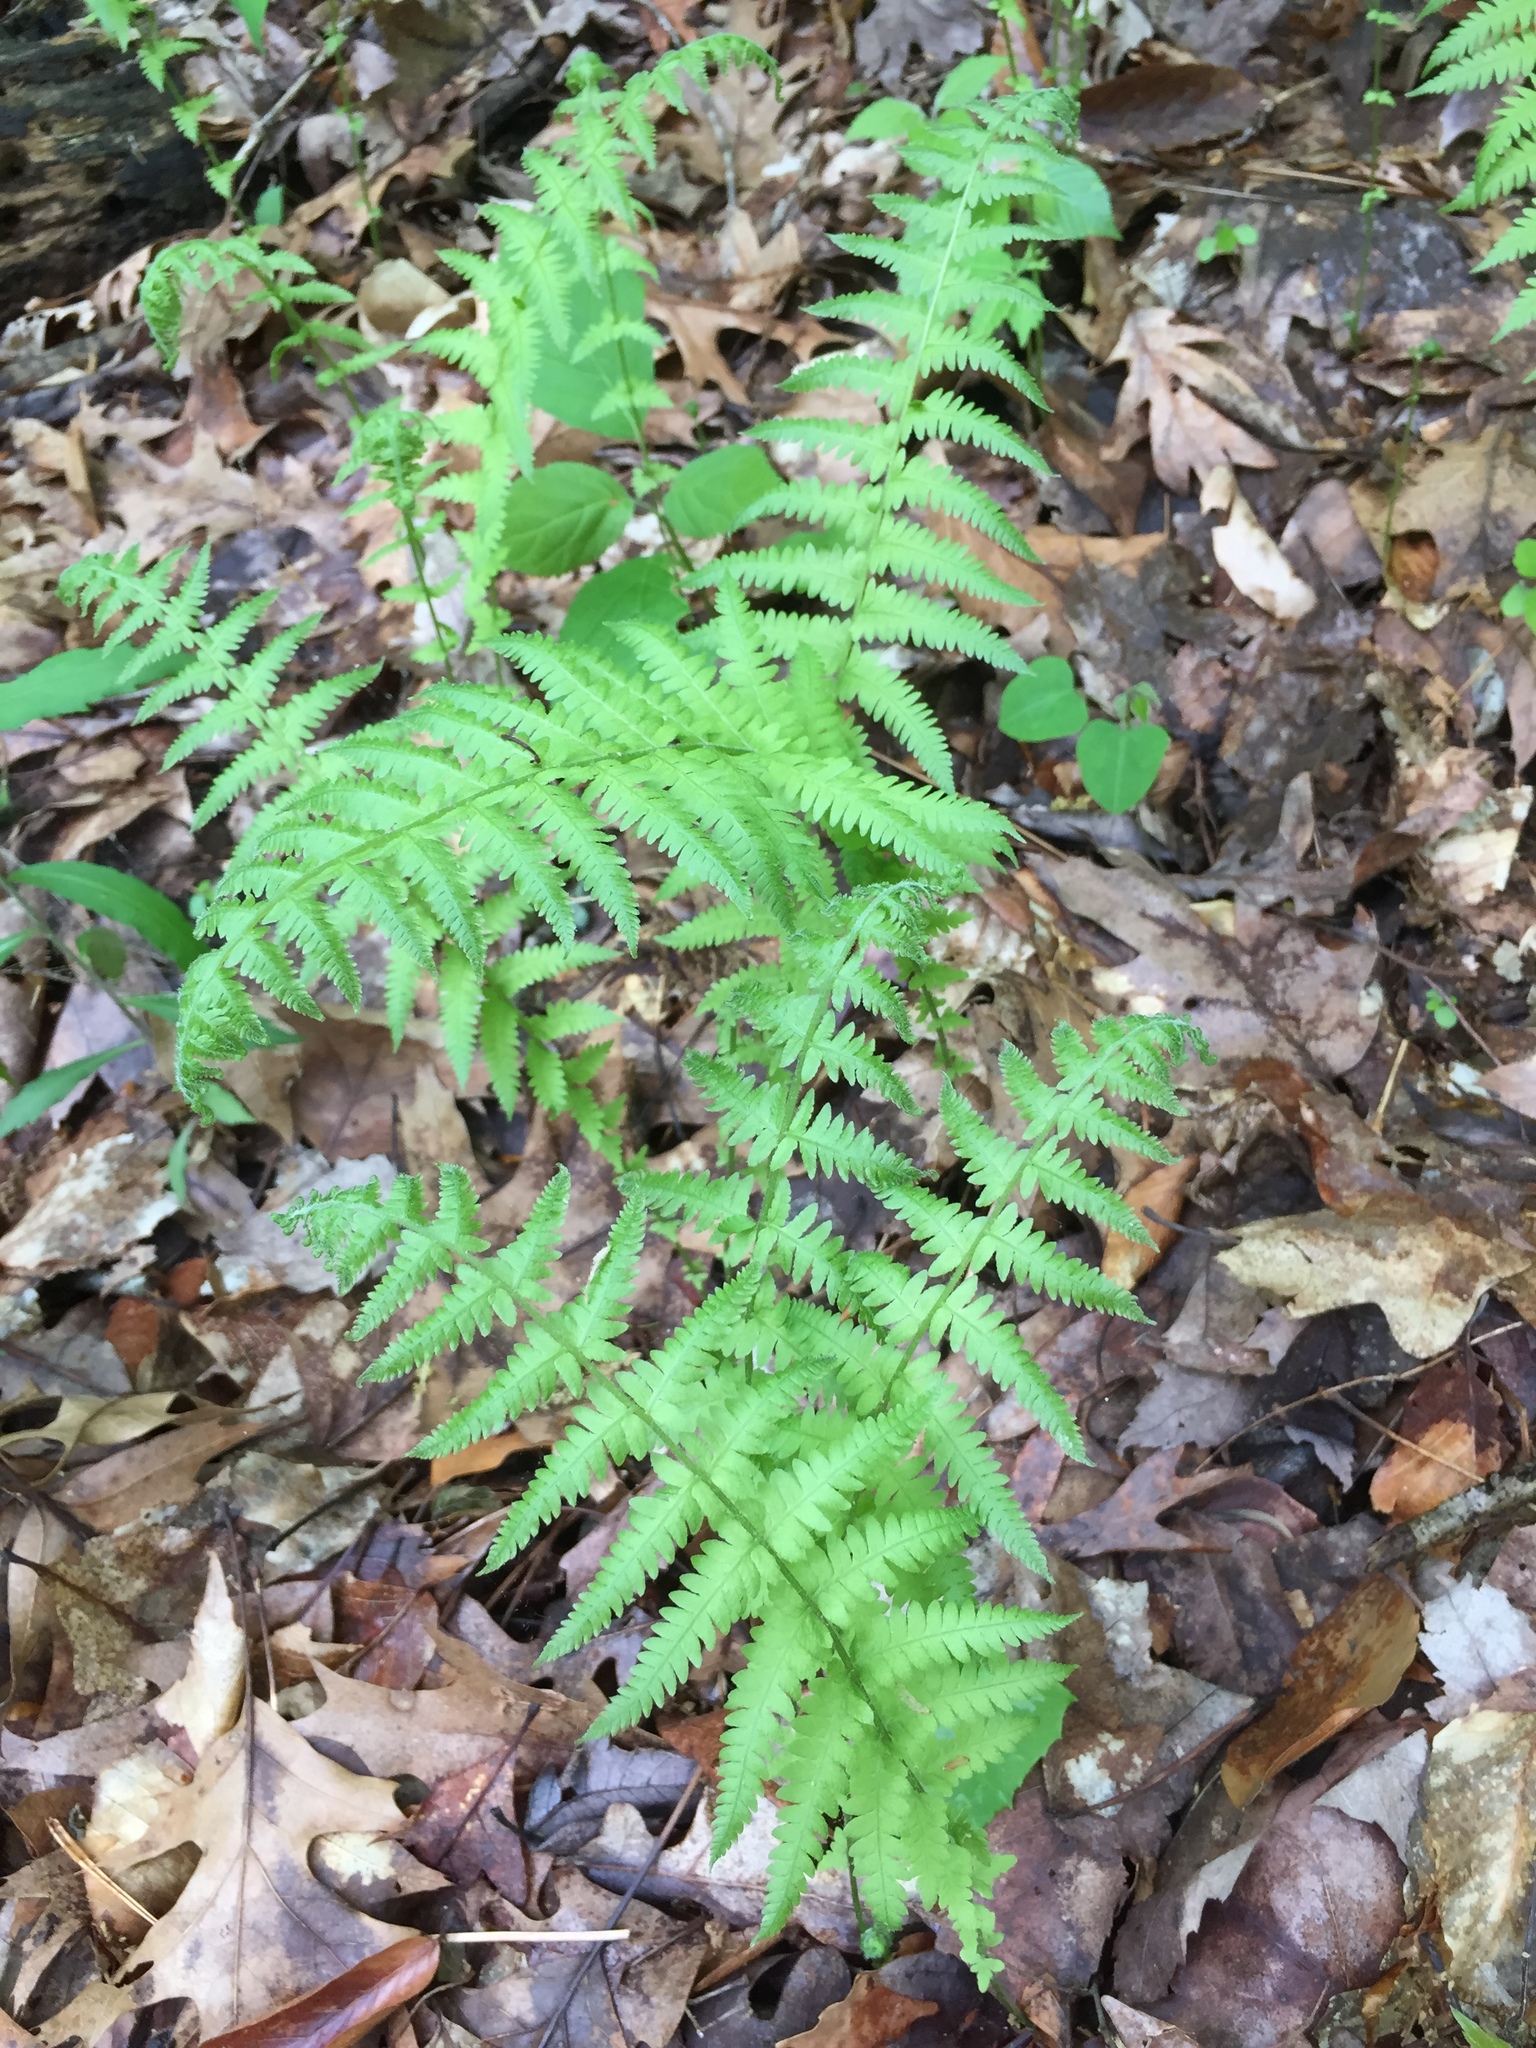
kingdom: Plantae
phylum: Tracheophyta
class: Polypodiopsida
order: Polypodiales
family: Thelypteridaceae
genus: Amauropelta
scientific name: Amauropelta noveboracensis
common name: New york fern
